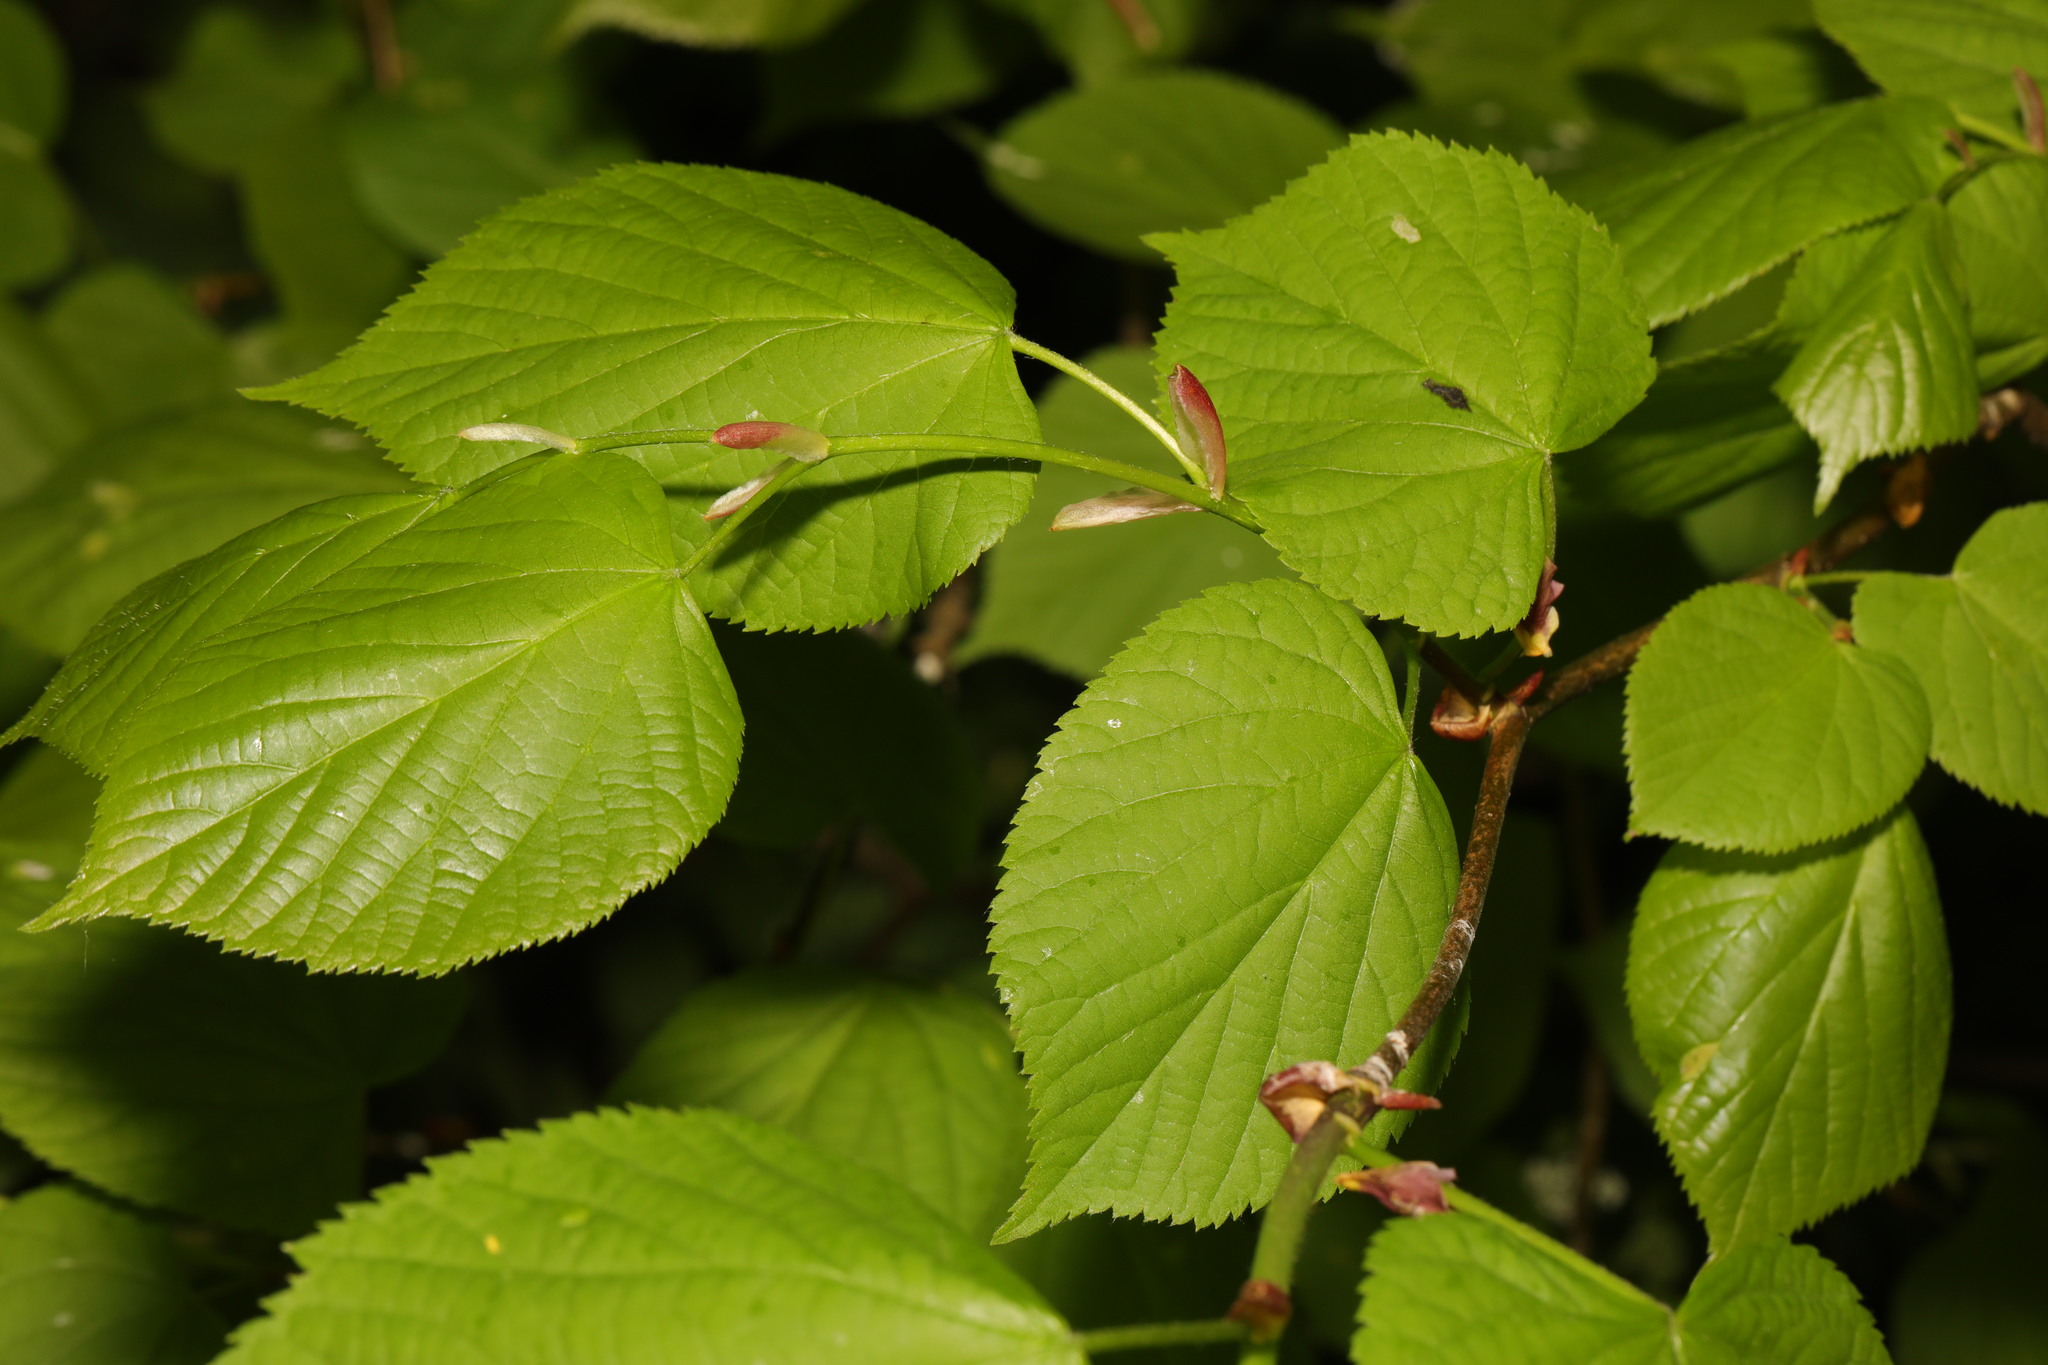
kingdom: Plantae
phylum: Tracheophyta
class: Magnoliopsida
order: Malvales
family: Malvaceae
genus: Tilia
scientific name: Tilia europaea
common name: European linden
